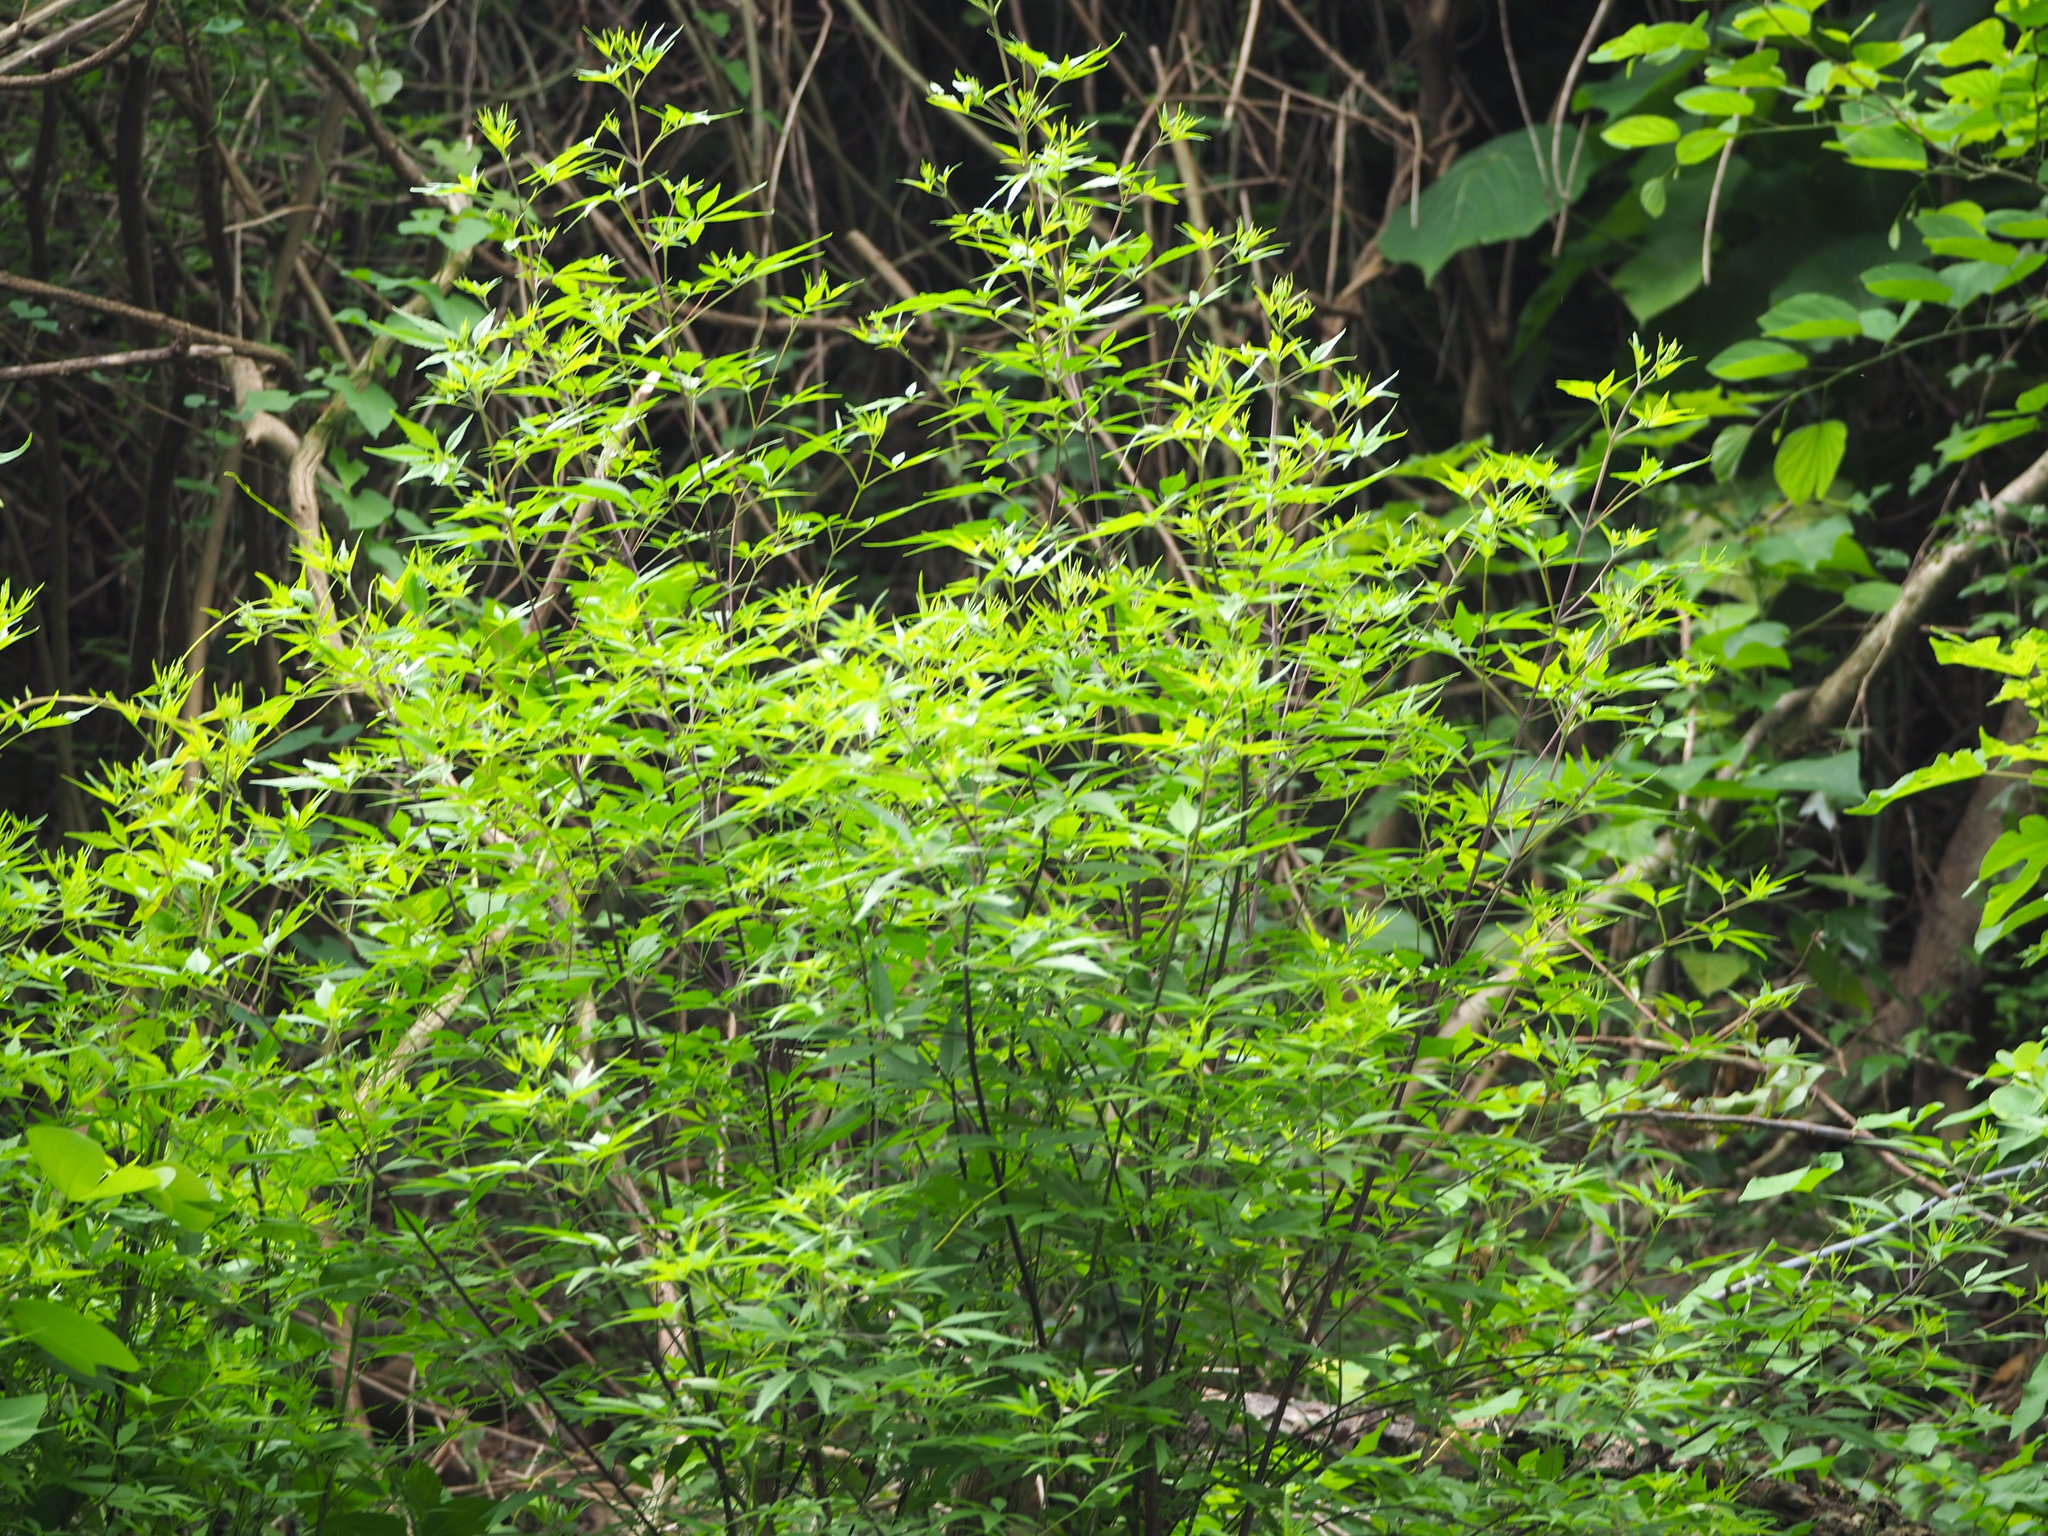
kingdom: Plantae
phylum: Tracheophyta
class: Magnoliopsida
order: Lamiales
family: Lamiaceae
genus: Vitex
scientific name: Vitex negundo
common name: Chinese chastetree
